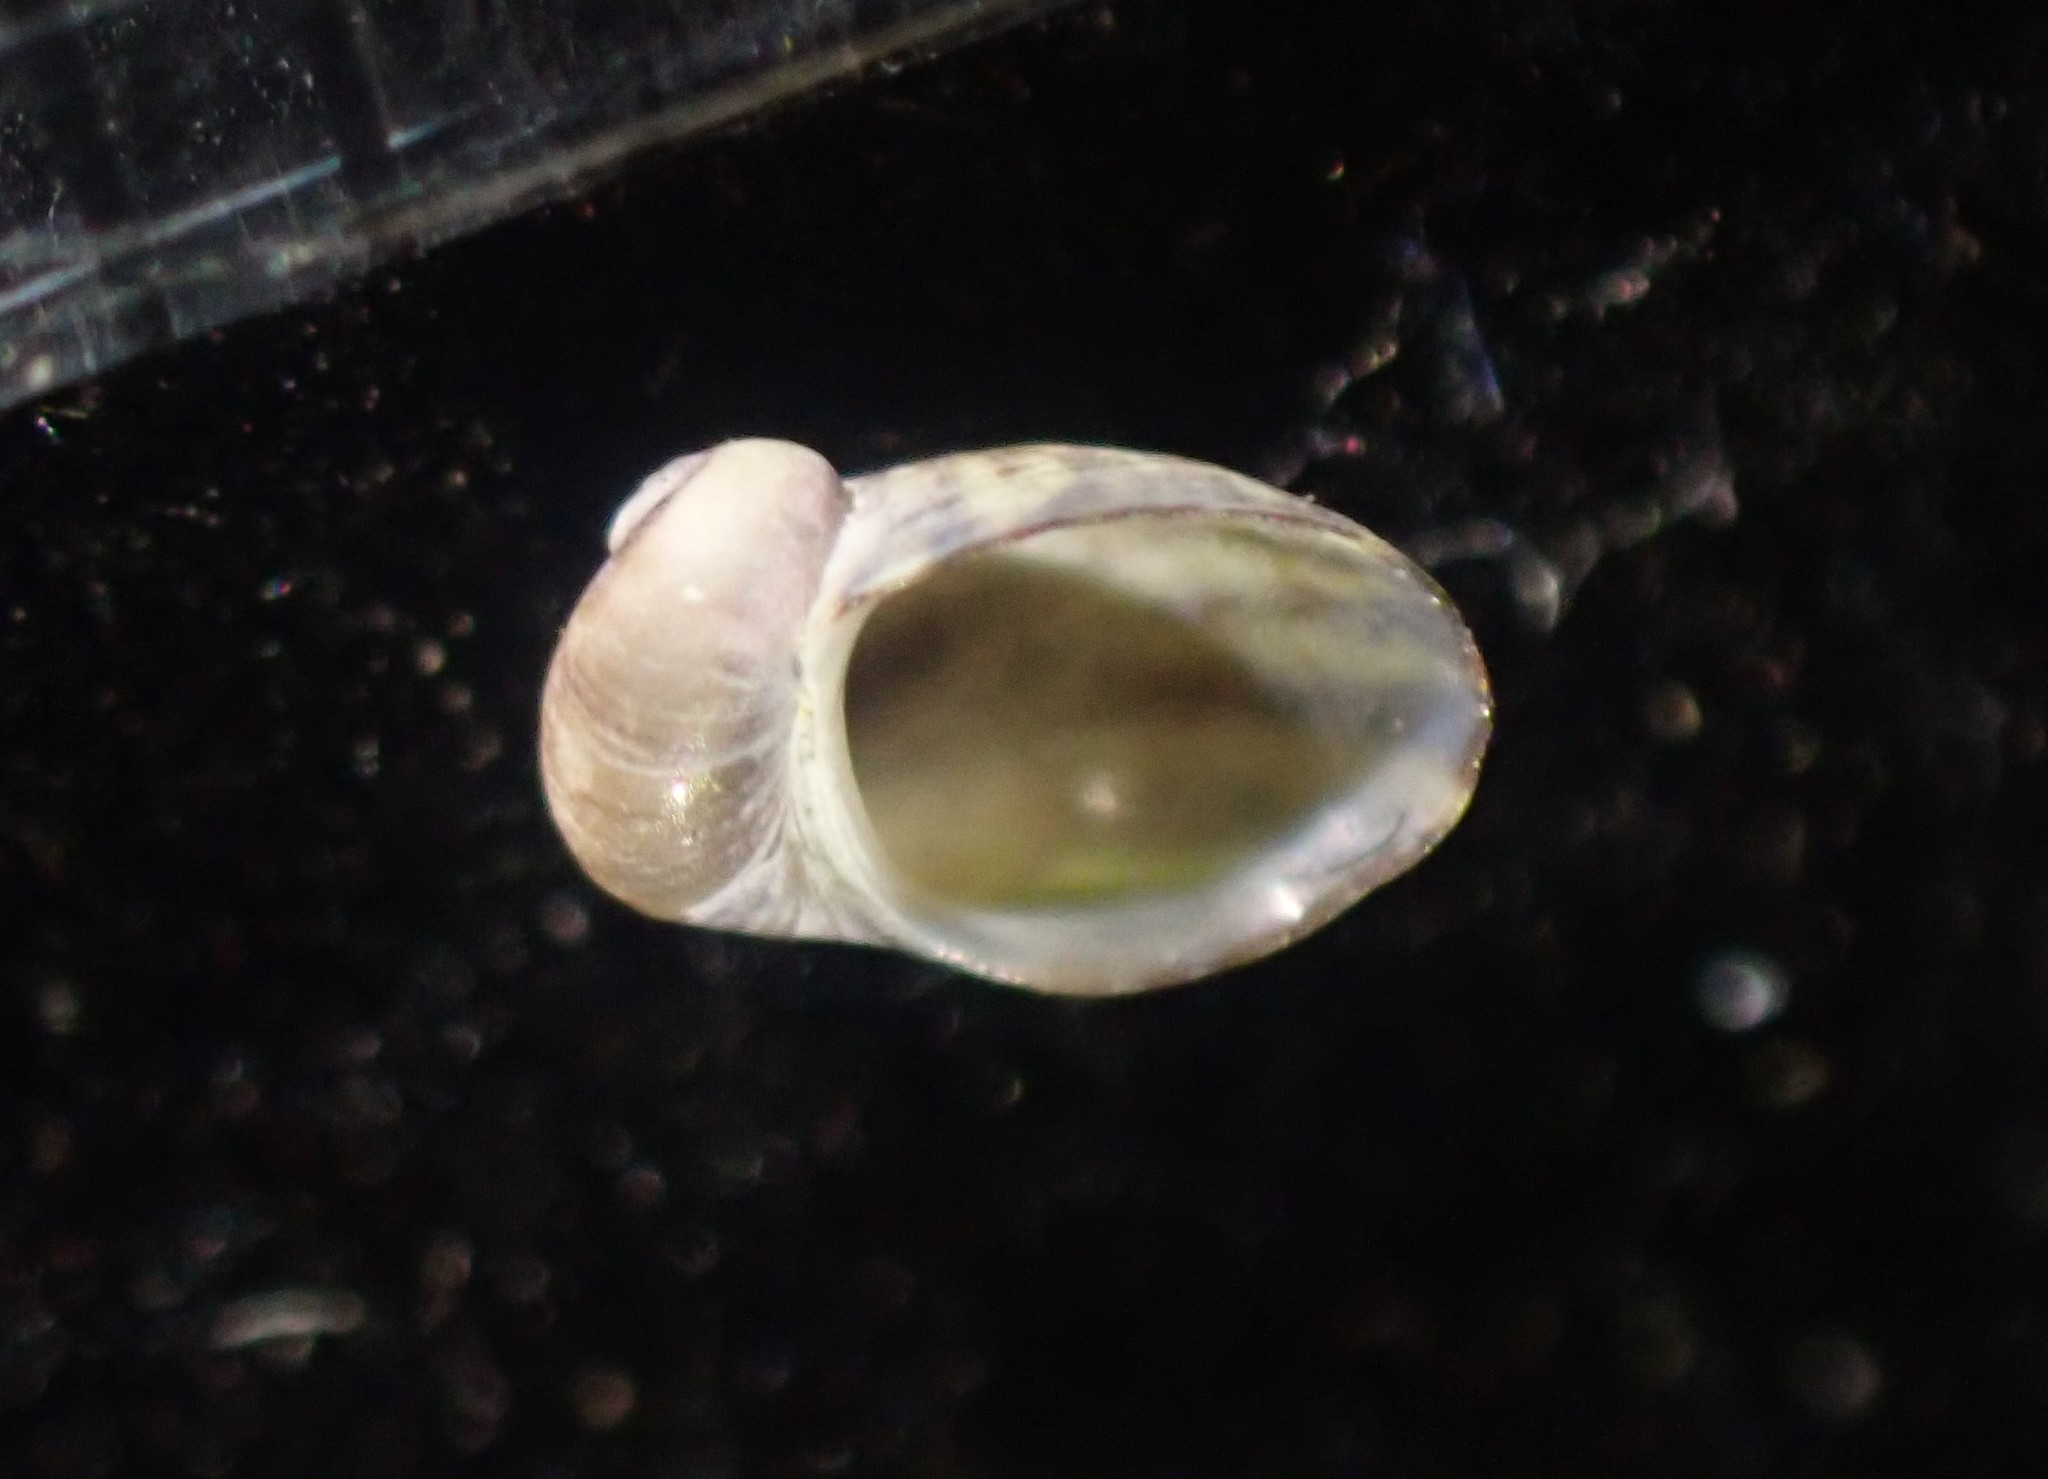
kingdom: Animalia
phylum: Mollusca
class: Gastropoda
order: Trochida
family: Trochidae
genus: Fossarina
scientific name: Fossarina rimata
